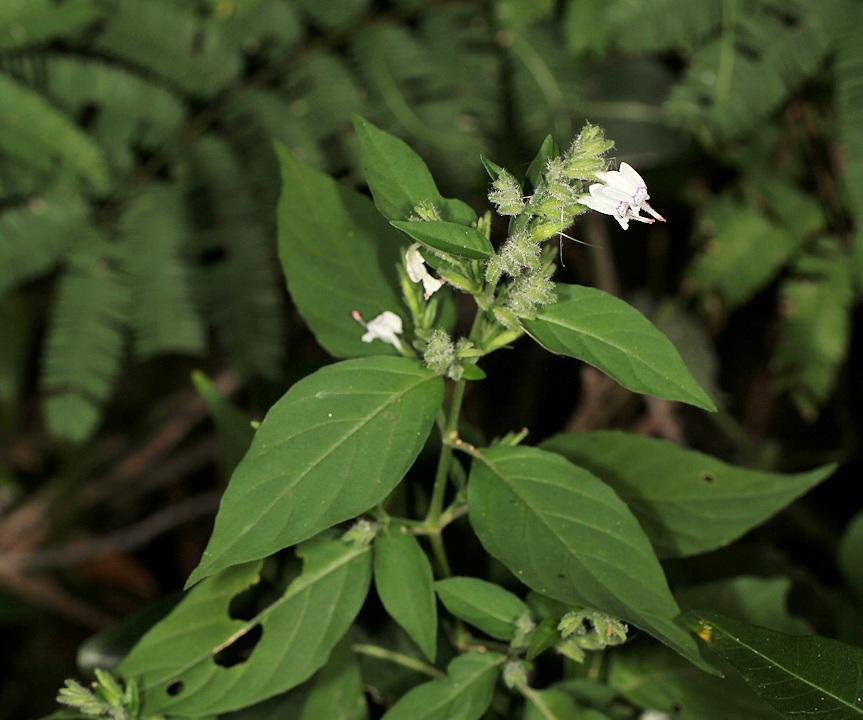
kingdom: Plantae
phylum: Tracheophyta
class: Magnoliopsida
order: Lamiales
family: Acanthaceae
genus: Hypoestes
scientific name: Hypoestes forskaolii
